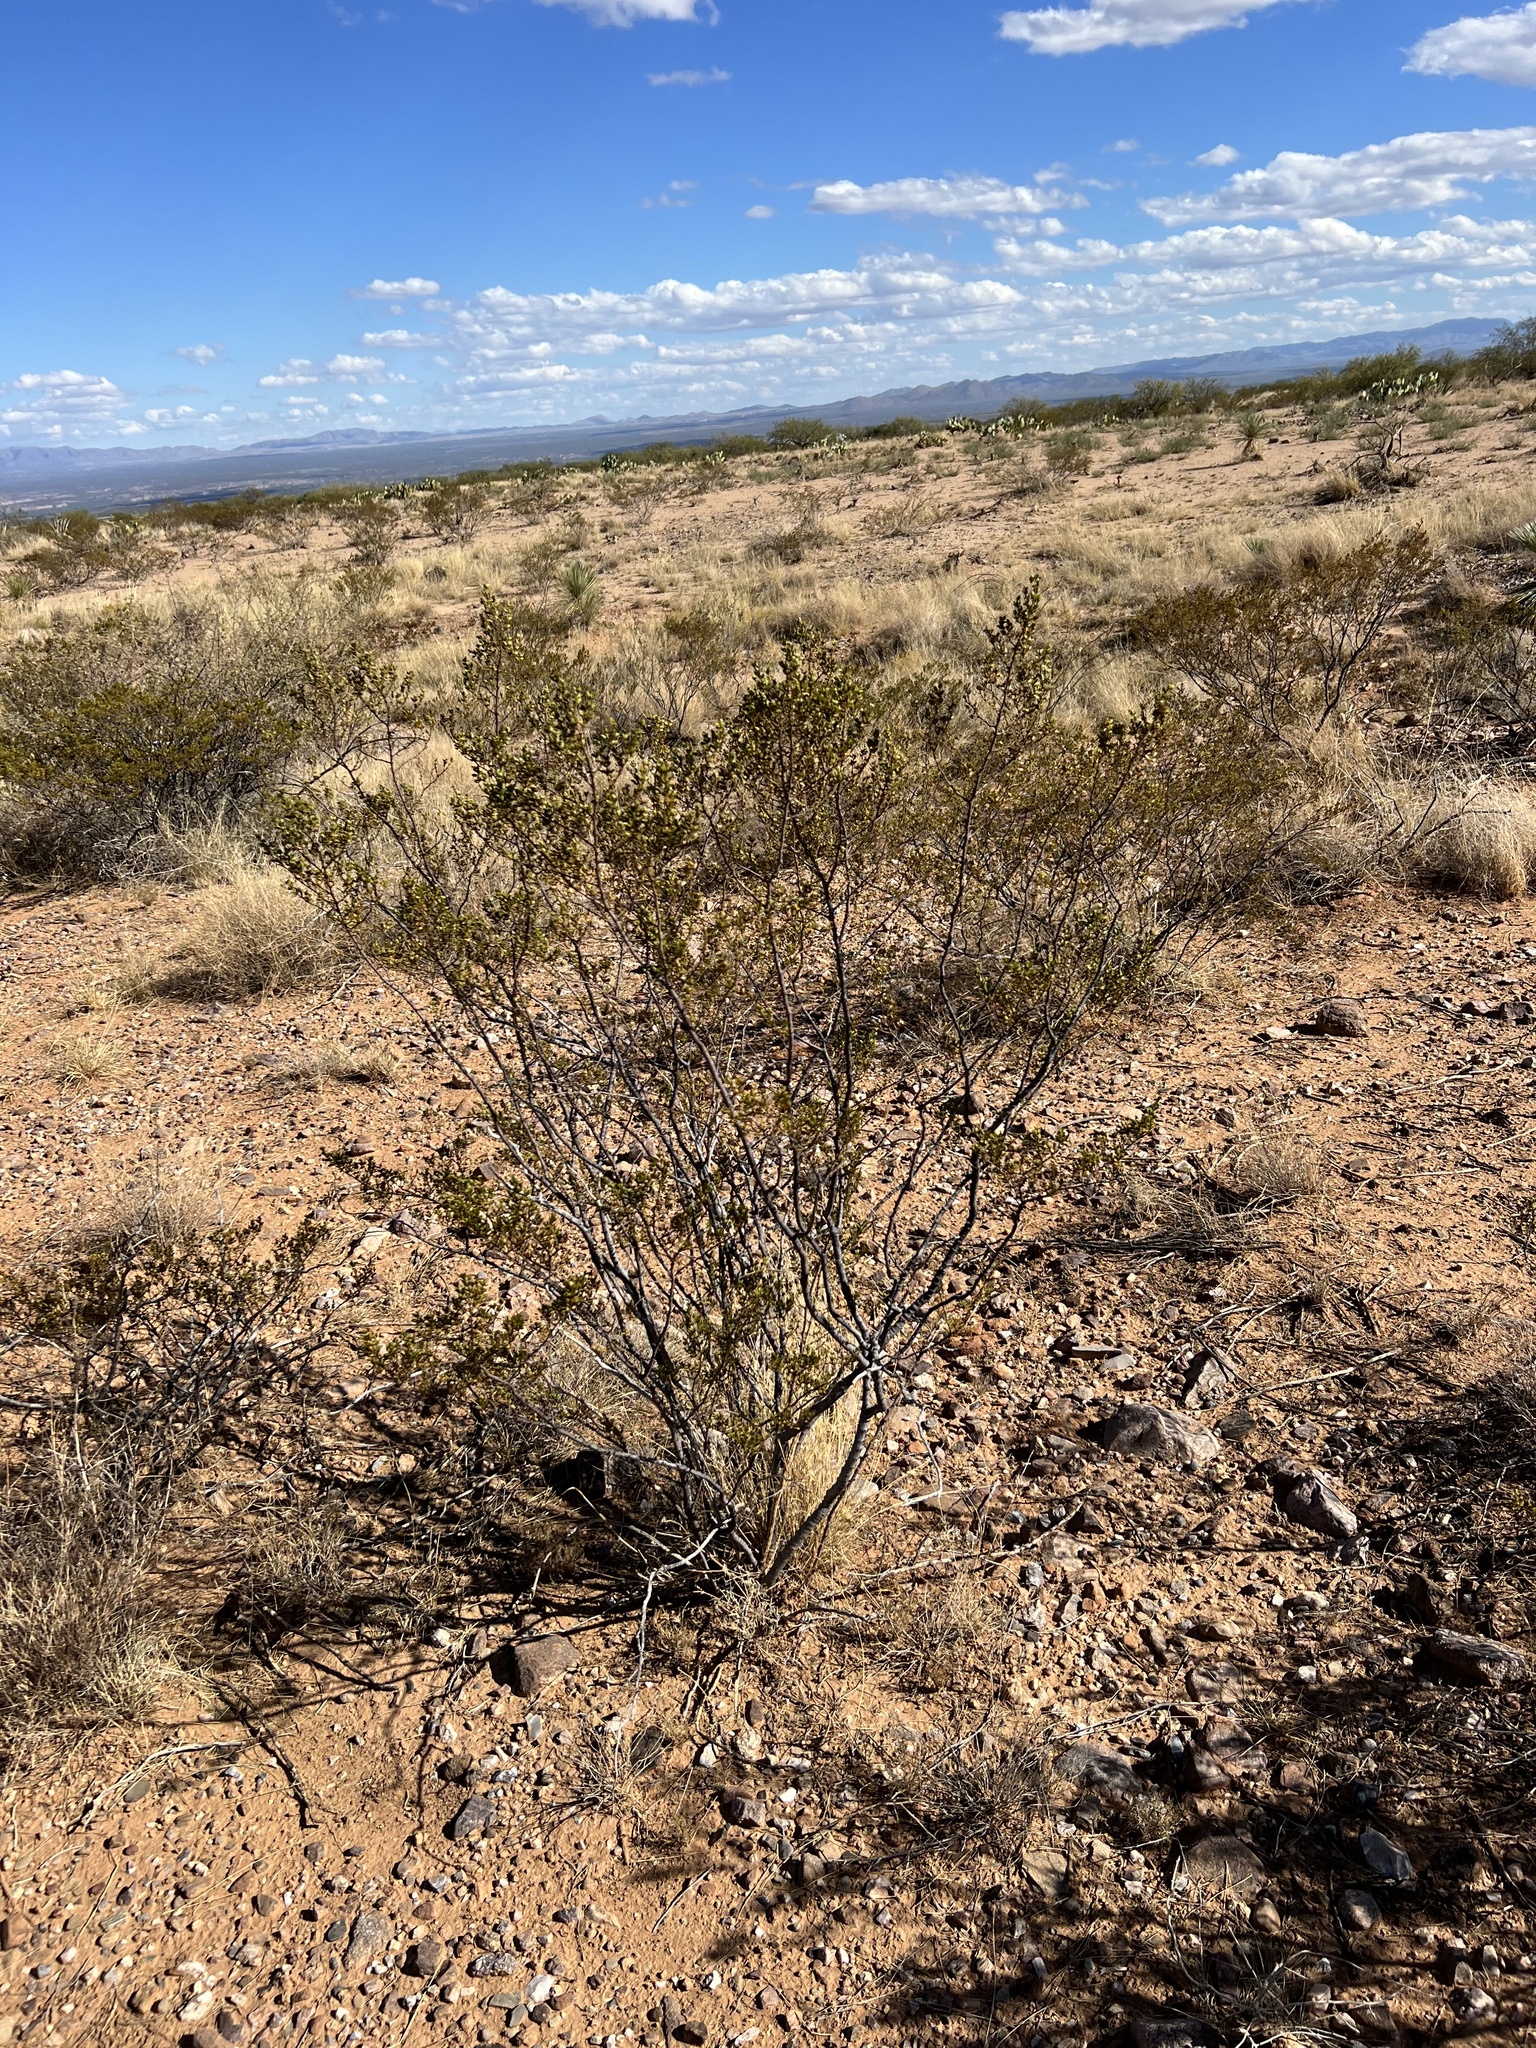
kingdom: Plantae
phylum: Tracheophyta
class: Magnoliopsida
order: Zygophyllales
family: Zygophyllaceae
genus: Larrea
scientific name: Larrea tridentata
